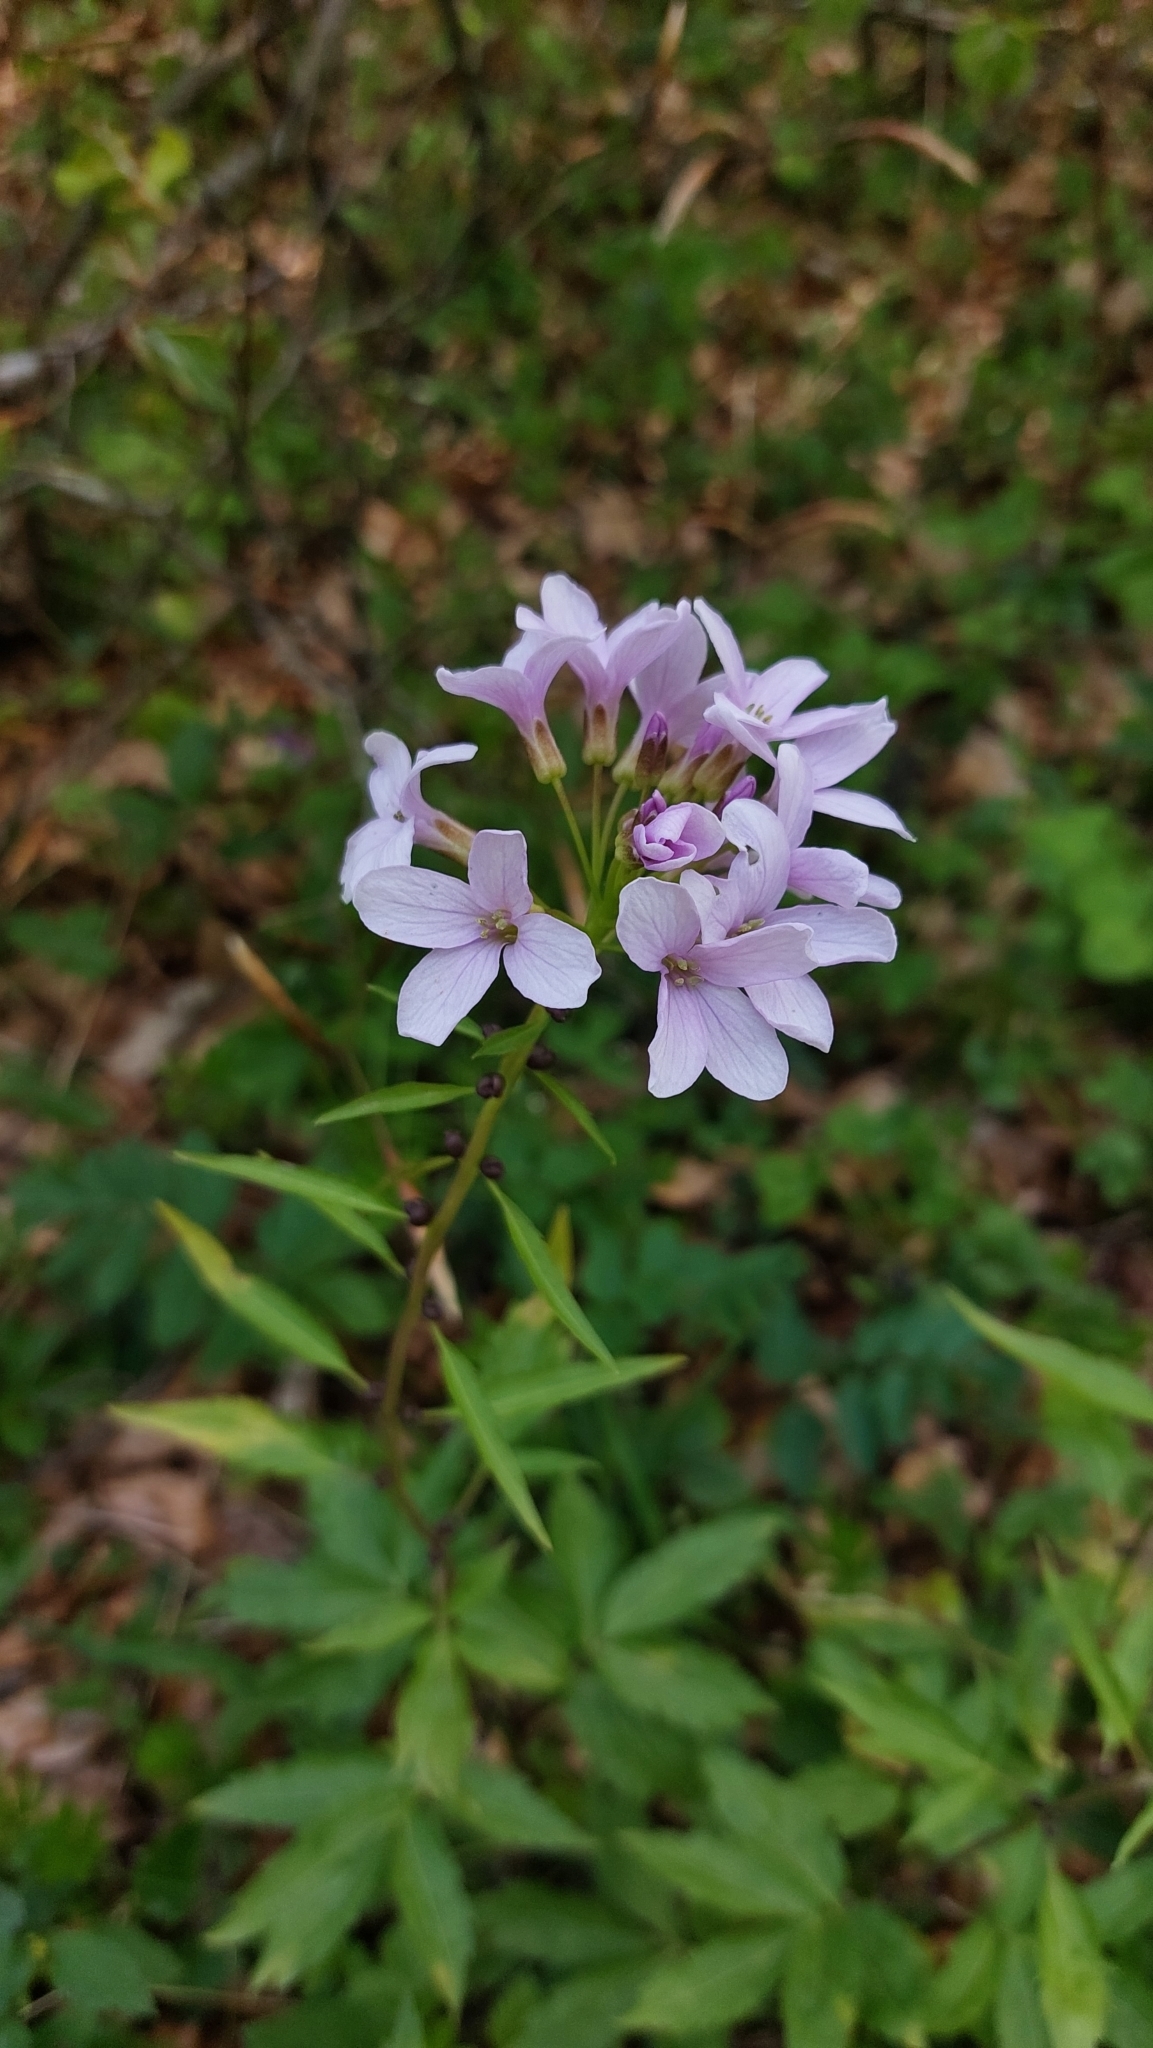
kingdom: Plantae
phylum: Tracheophyta
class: Magnoliopsida
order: Brassicales
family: Brassicaceae
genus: Cardamine
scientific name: Cardamine bulbifera
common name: Coralroot bittercress
